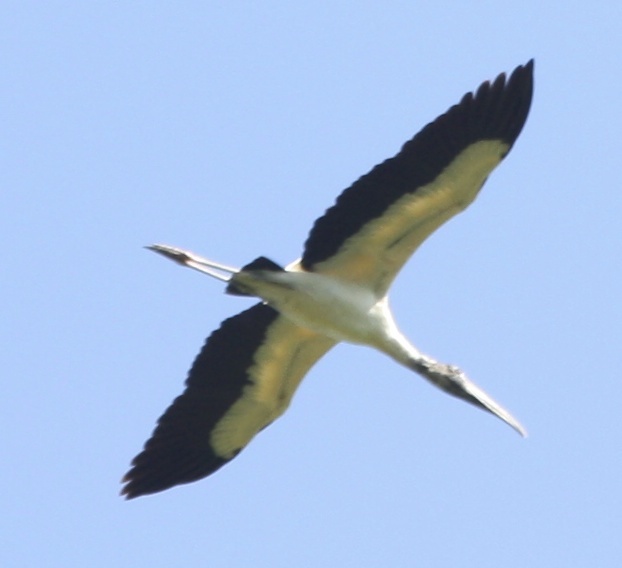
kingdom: Animalia
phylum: Chordata
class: Aves
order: Ciconiiformes
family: Ciconiidae
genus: Mycteria
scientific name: Mycteria americana
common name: Wood stork
